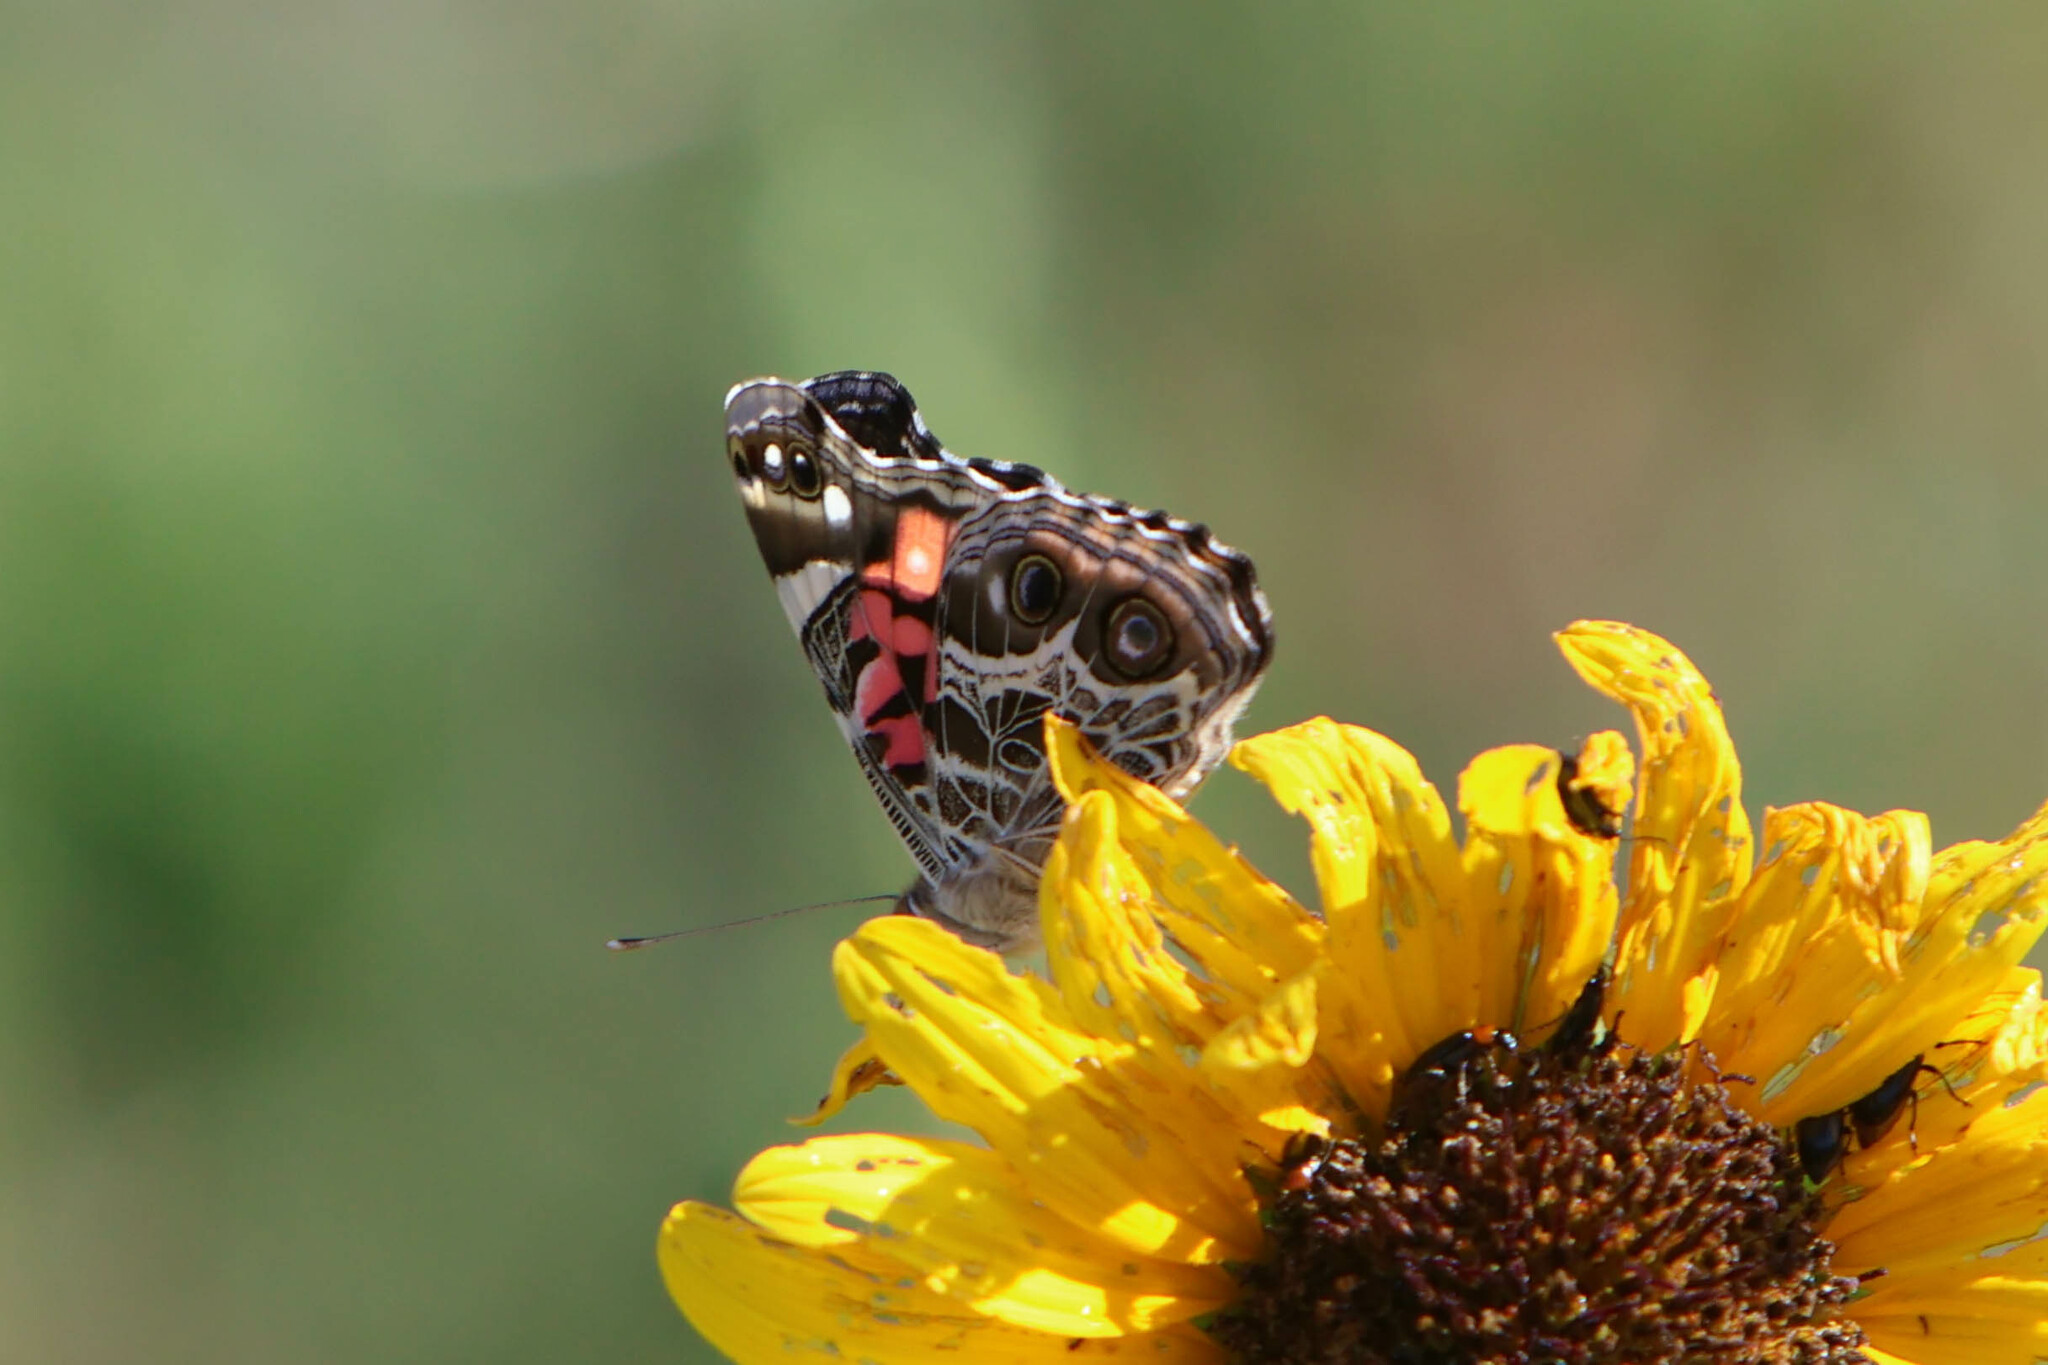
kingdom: Animalia
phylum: Arthropoda
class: Insecta
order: Lepidoptera
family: Nymphalidae
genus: Vanessa
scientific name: Vanessa virginiensis
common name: American lady
